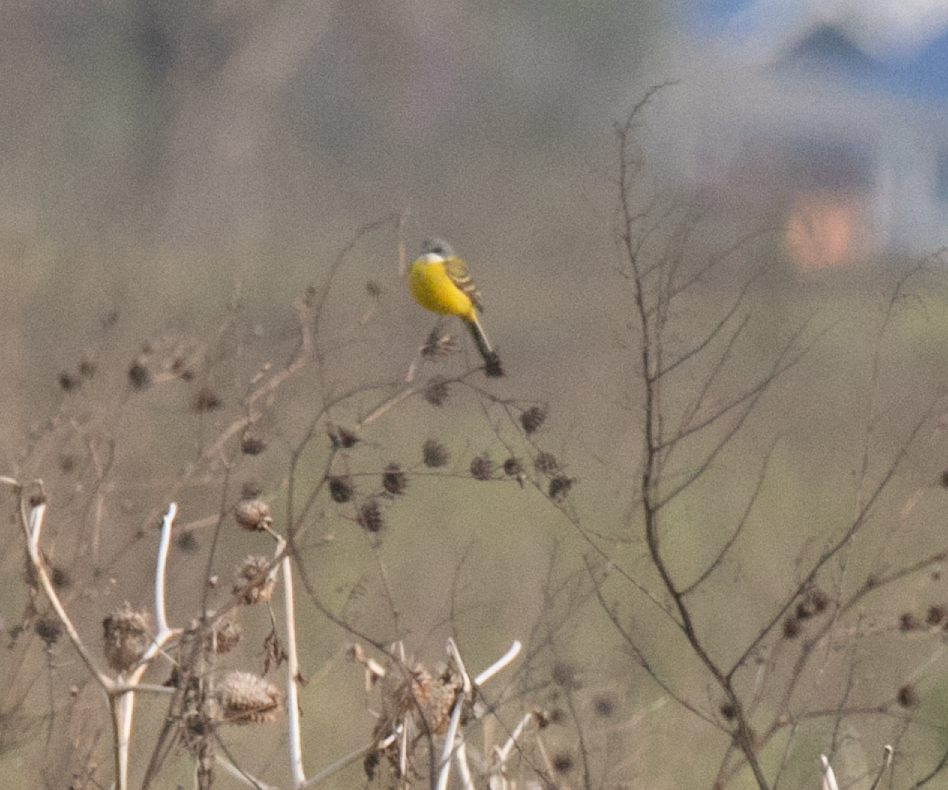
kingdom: Animalia
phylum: Chordata
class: Aves
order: Passeriformes
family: Motacillidae
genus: Motacilla
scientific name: Motacilla flava
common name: Western yellow wagtail
